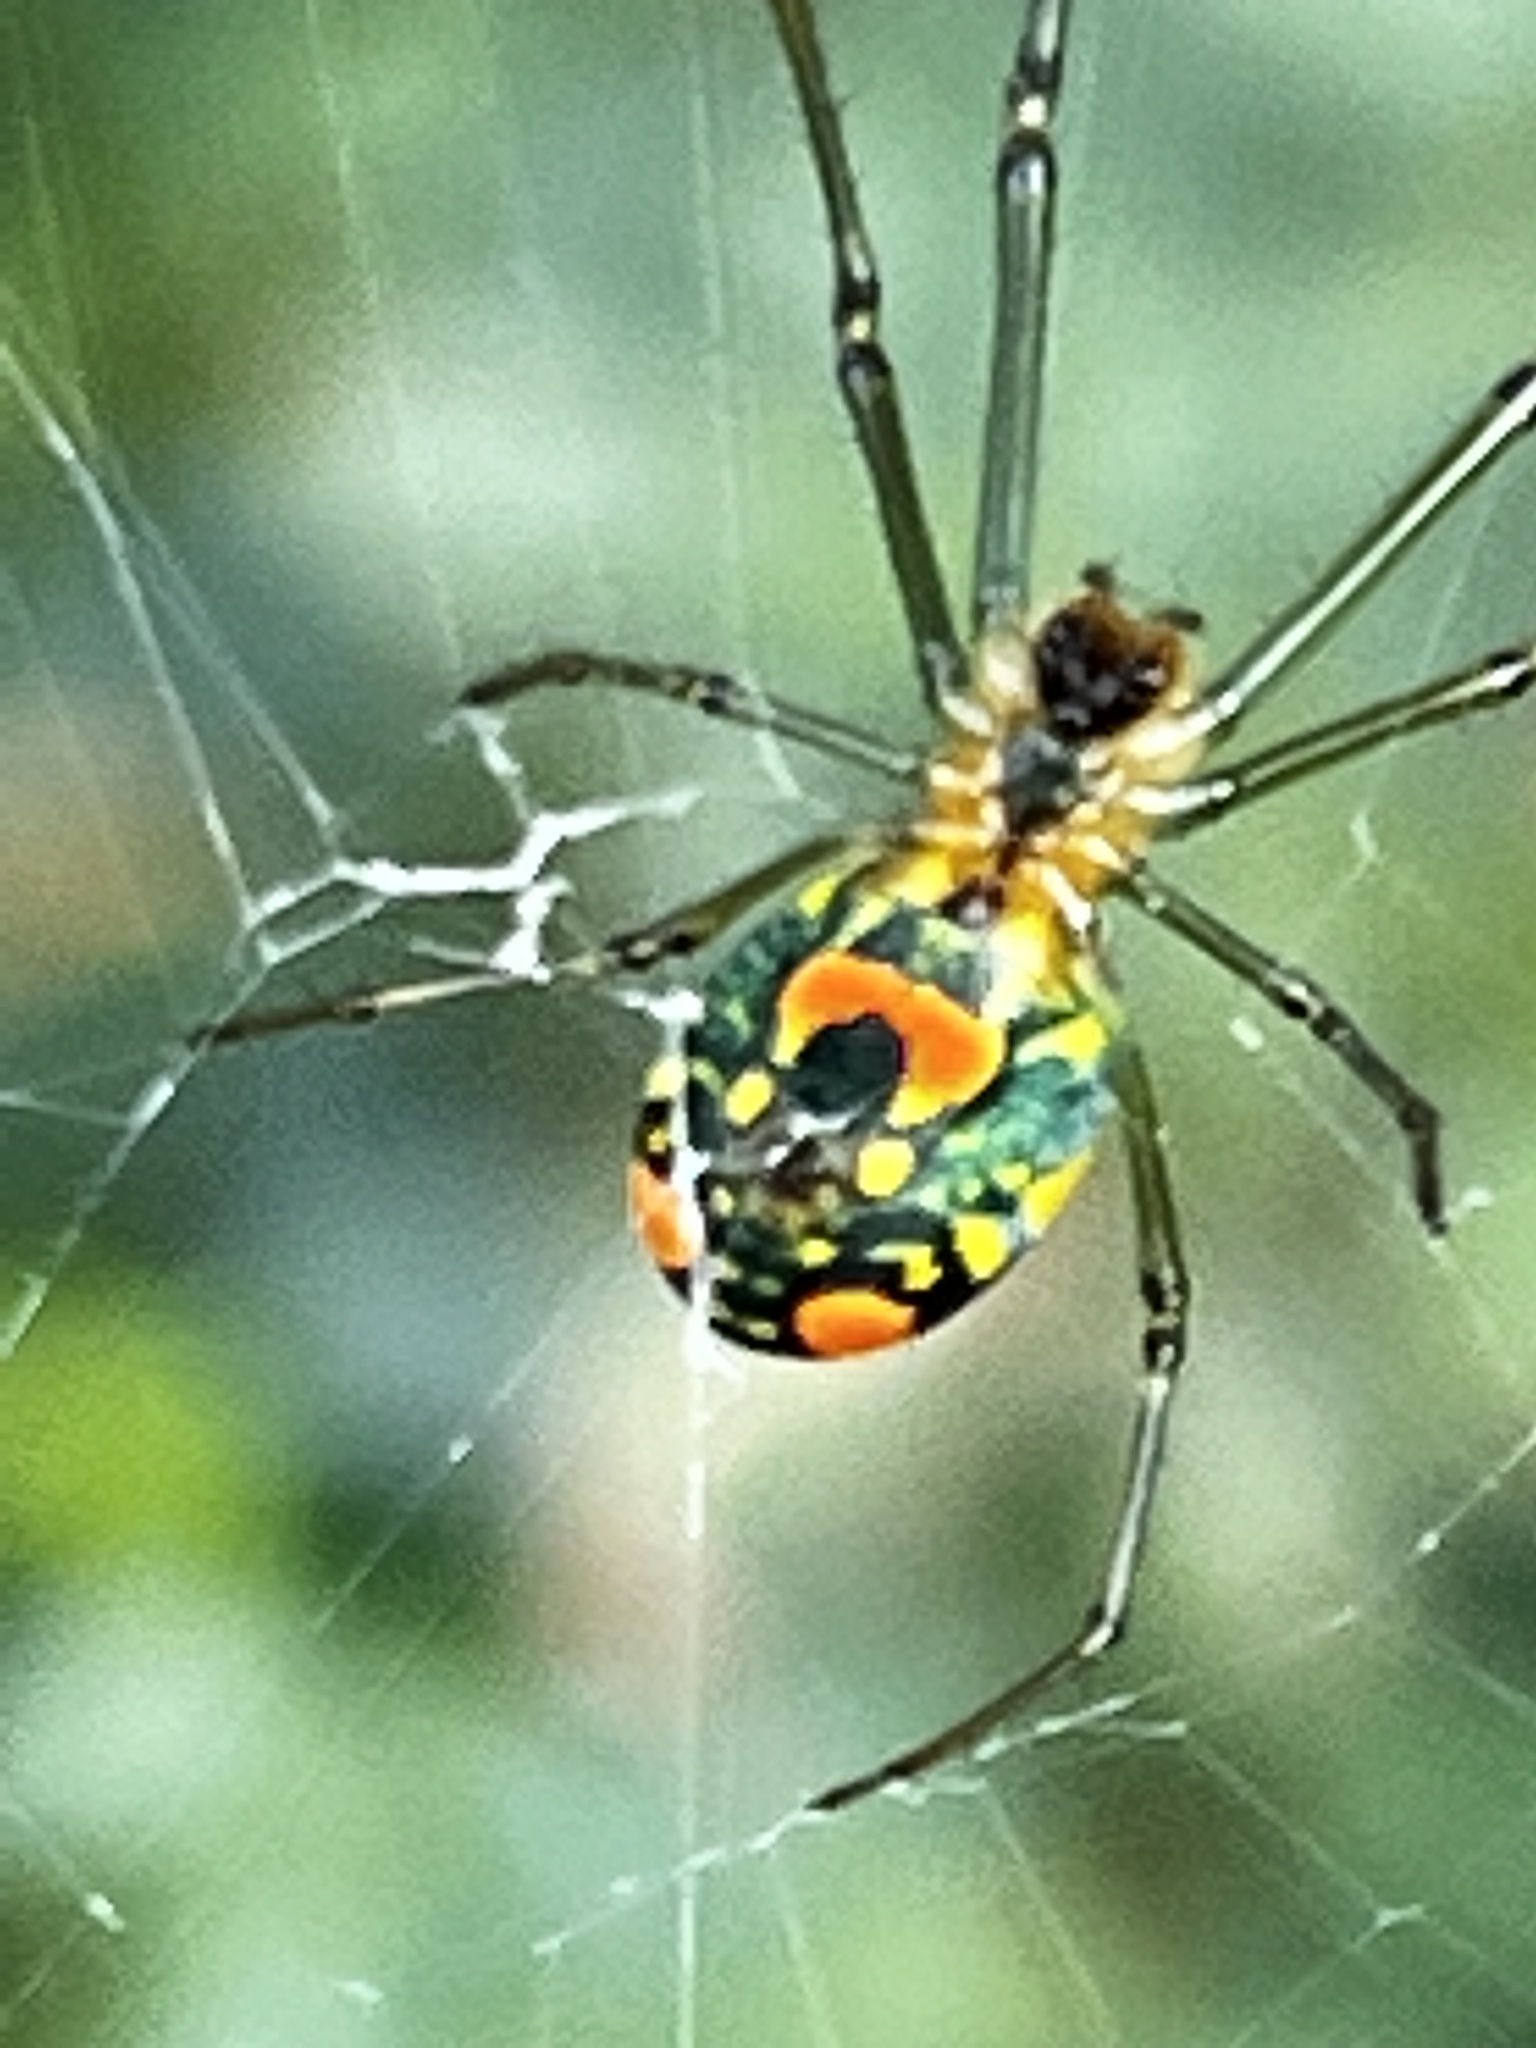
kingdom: Animalia
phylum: Arthropoda
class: Arachnida
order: Araneae
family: Tetragnathidae
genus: Leucauge
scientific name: Leucauge argyrobapta
